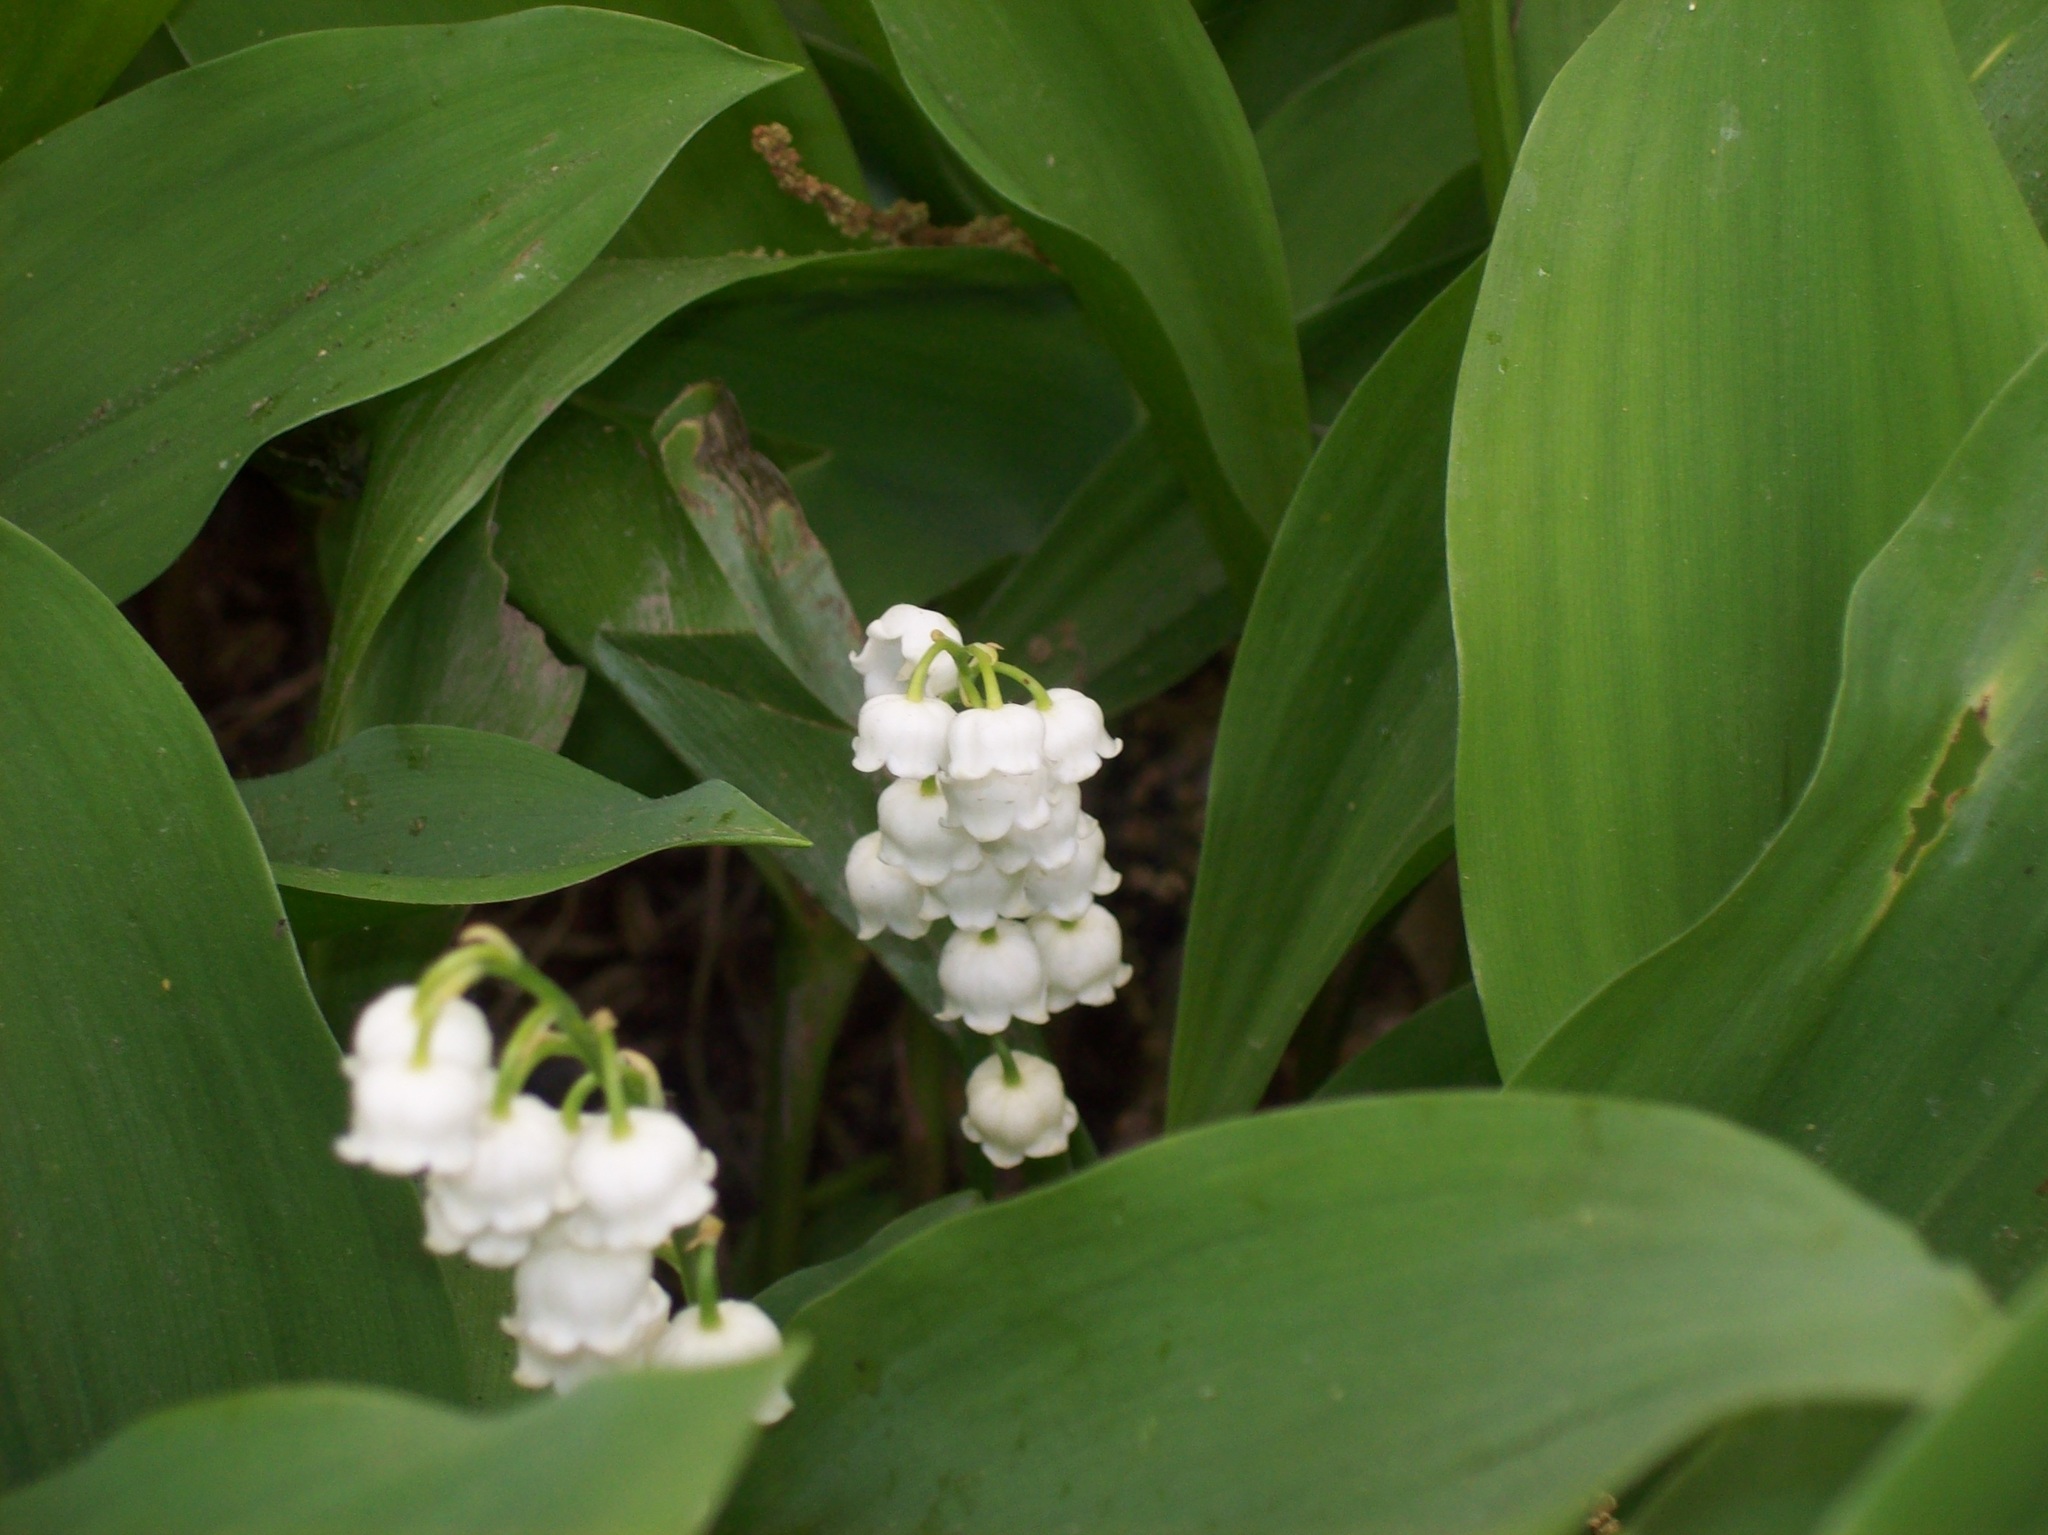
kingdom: Plantae
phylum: Tracheophyta
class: Liliopsida
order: Asparagales
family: Asparagaceae
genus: Convallaria
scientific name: Convallaria majalis
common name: Lily-of-the-valley
